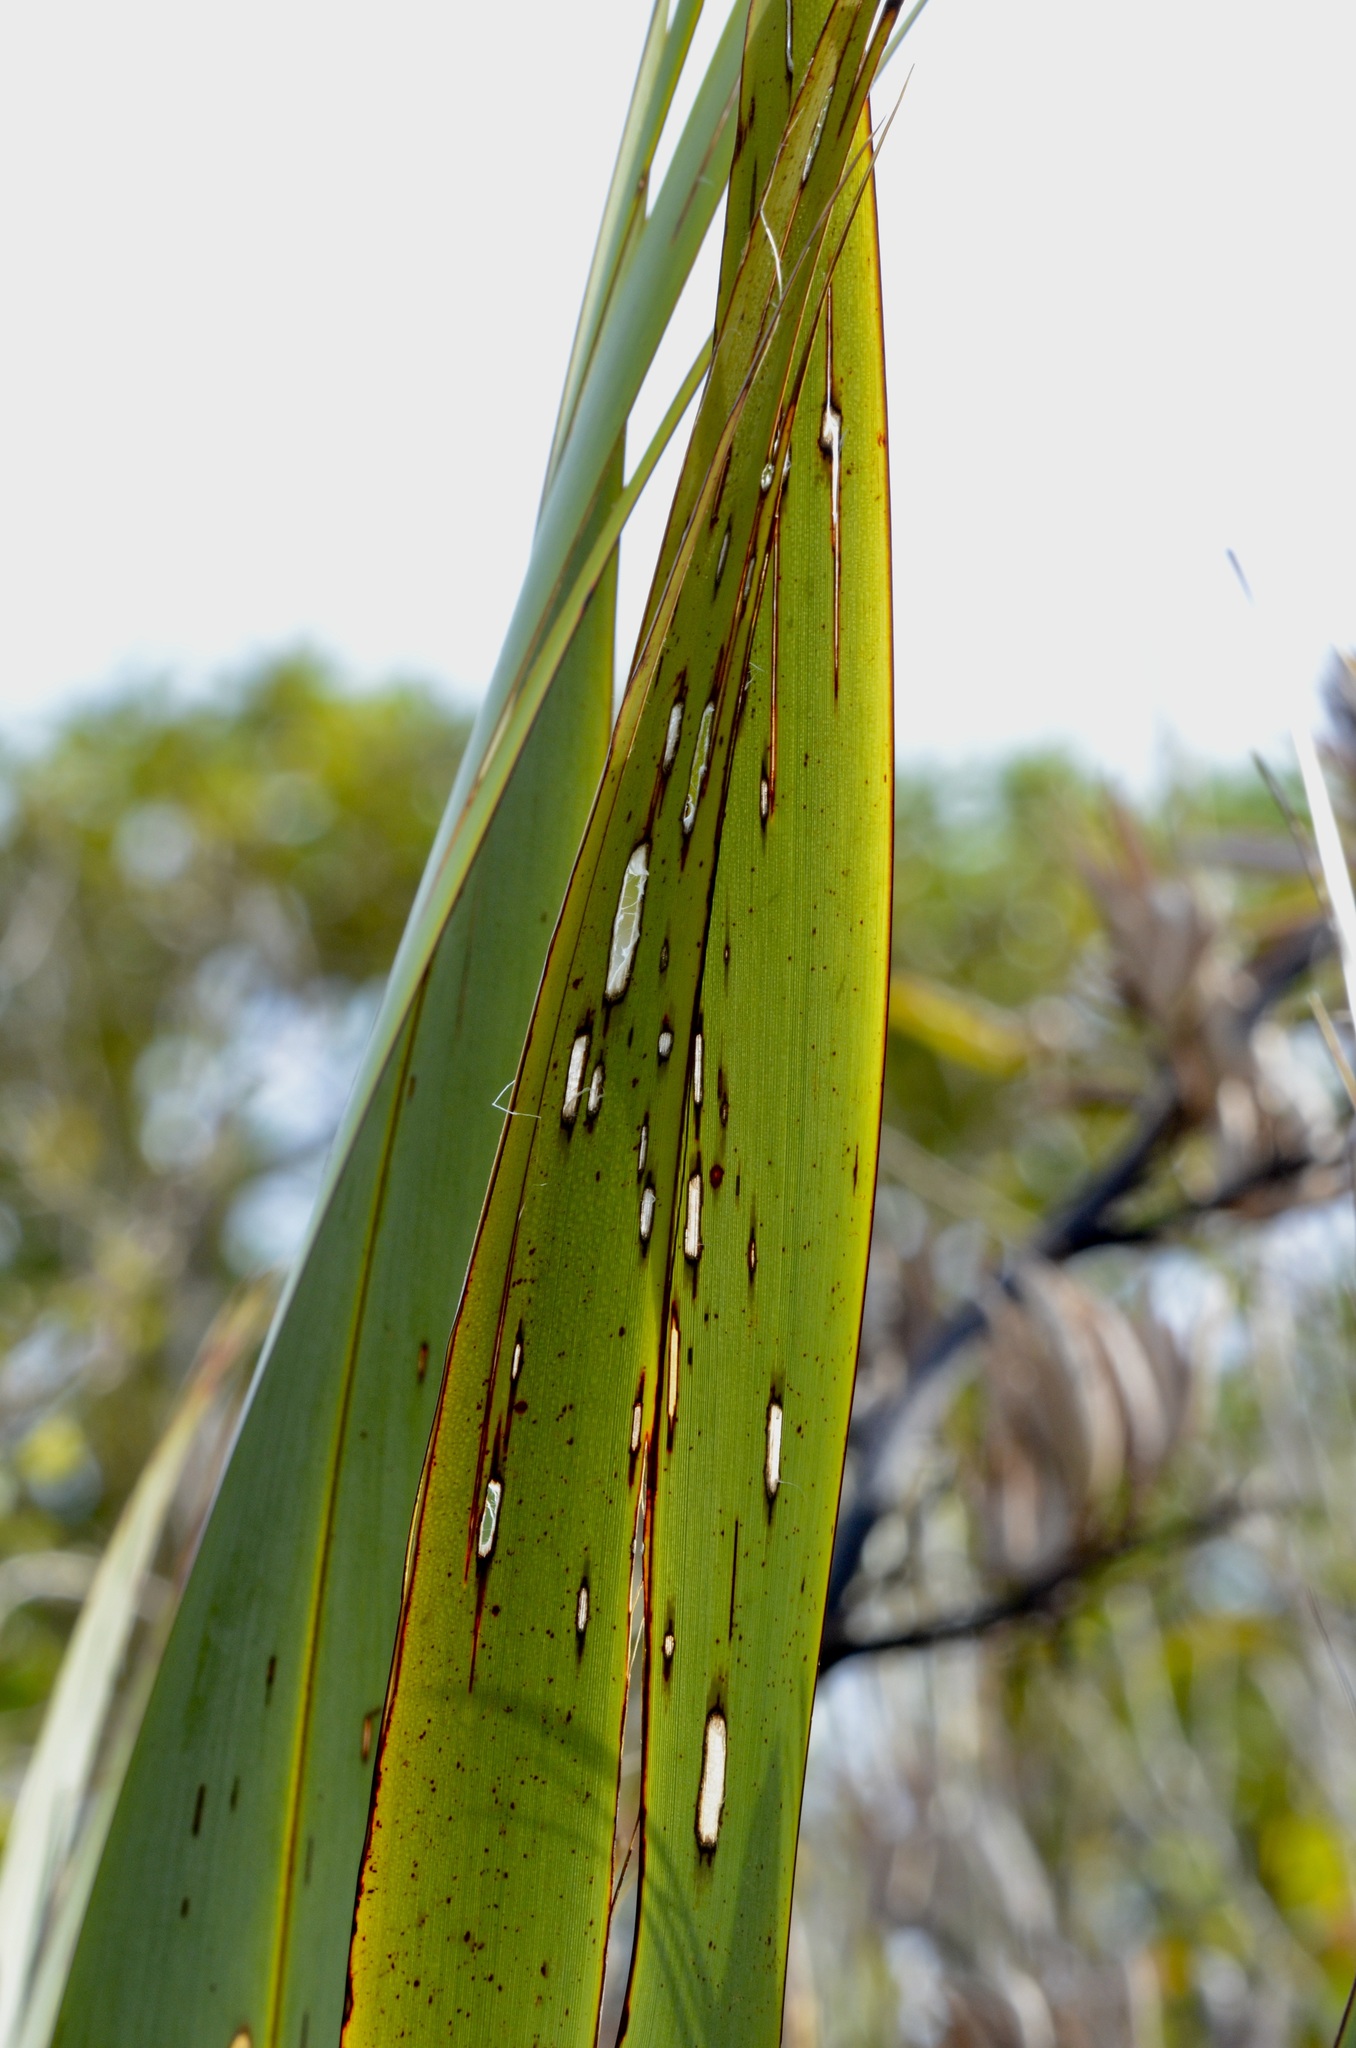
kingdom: Animalia
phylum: Arthropoda
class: Insecta
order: Lepidoptera
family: Geometridae
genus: Orthoclydon
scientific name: Orthoclydon praefectata
